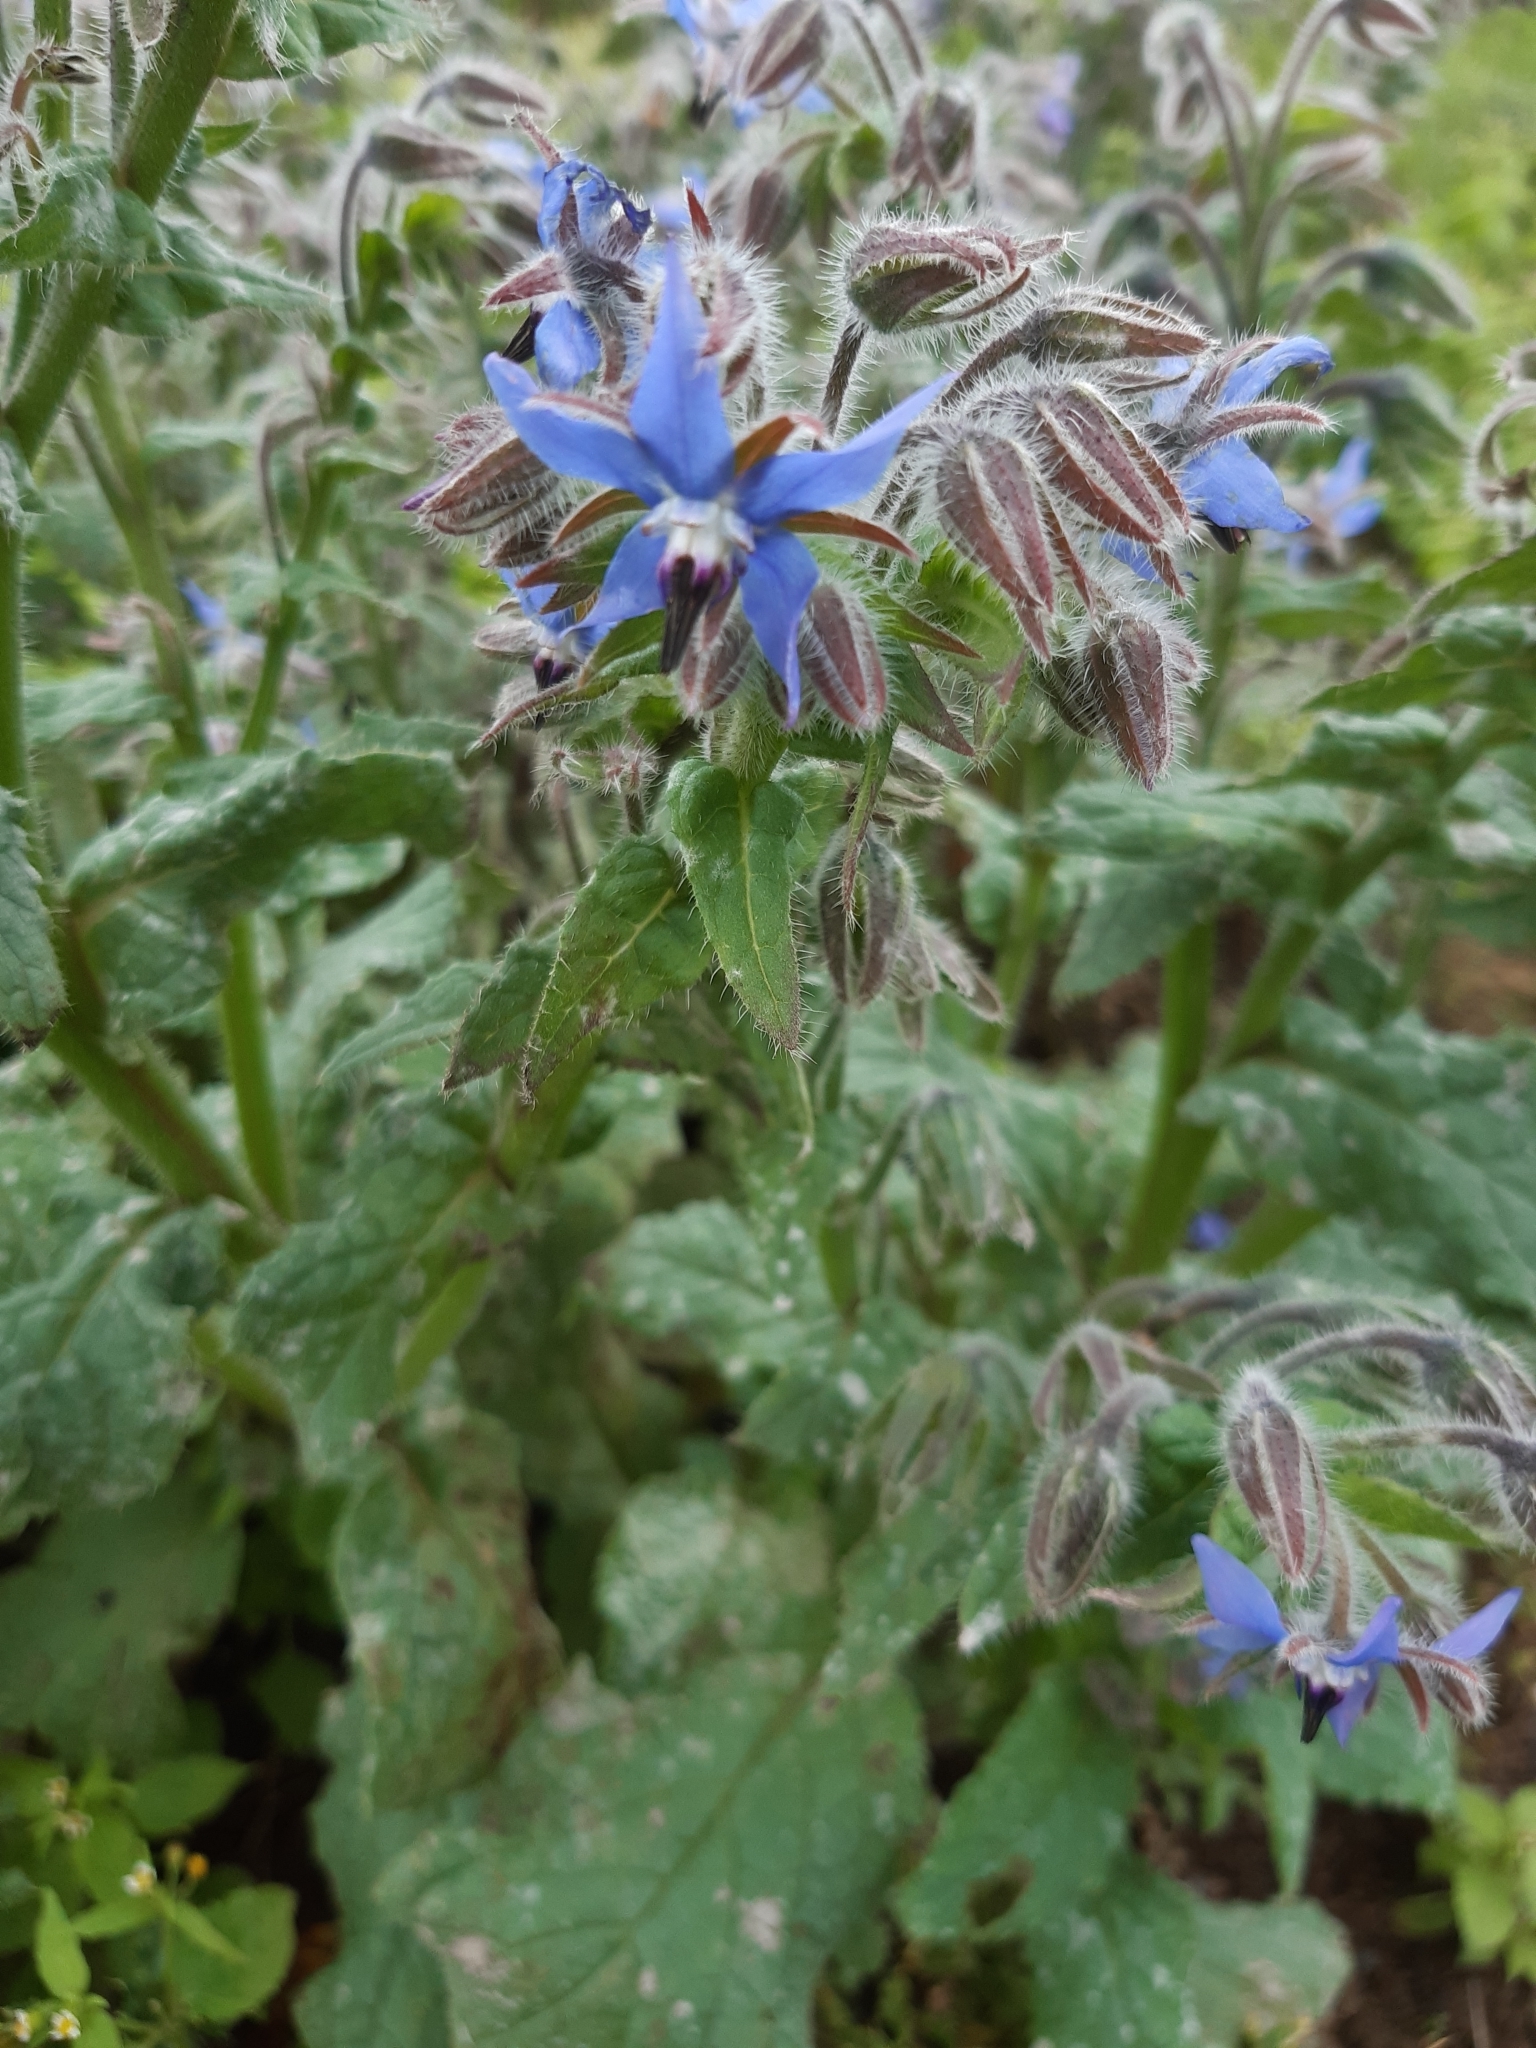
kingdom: Plantae
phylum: Tracheophyta
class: Magnoliopsida
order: Boraginales
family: Boraginaceae
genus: Borago
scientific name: Borago officinalis
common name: Borage
